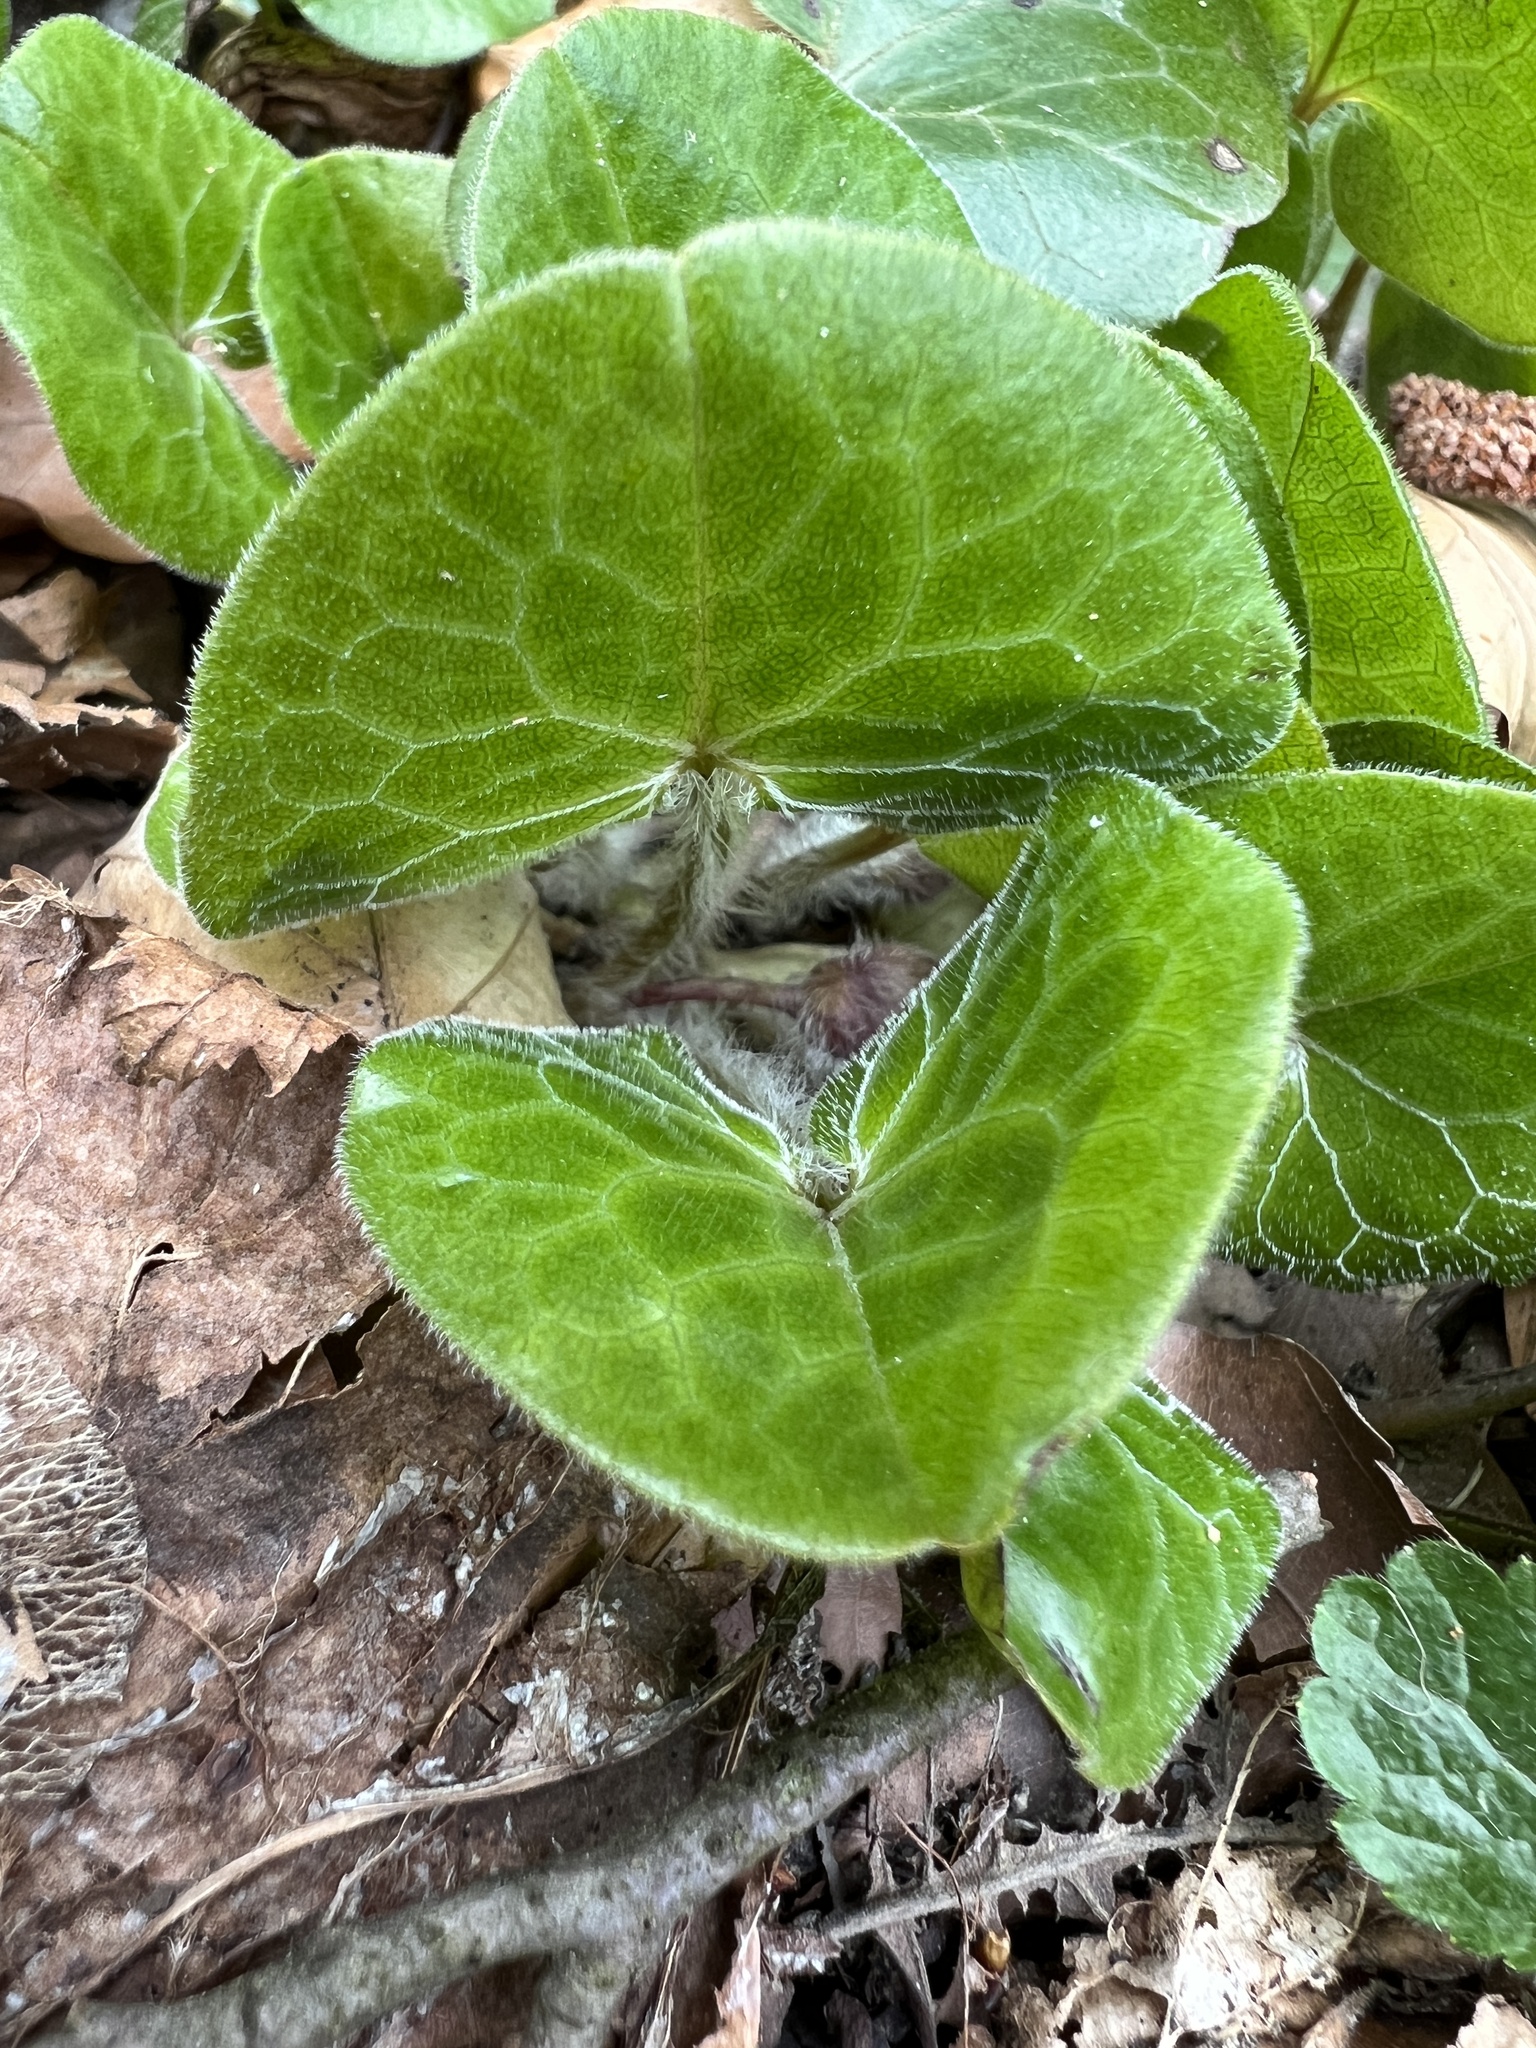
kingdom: Plantae
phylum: Tracheophyta
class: Magnoliopsida
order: Piperales
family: Aristolochiaceae
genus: Asarum
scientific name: Asarum europaeum
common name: Asarabacca
